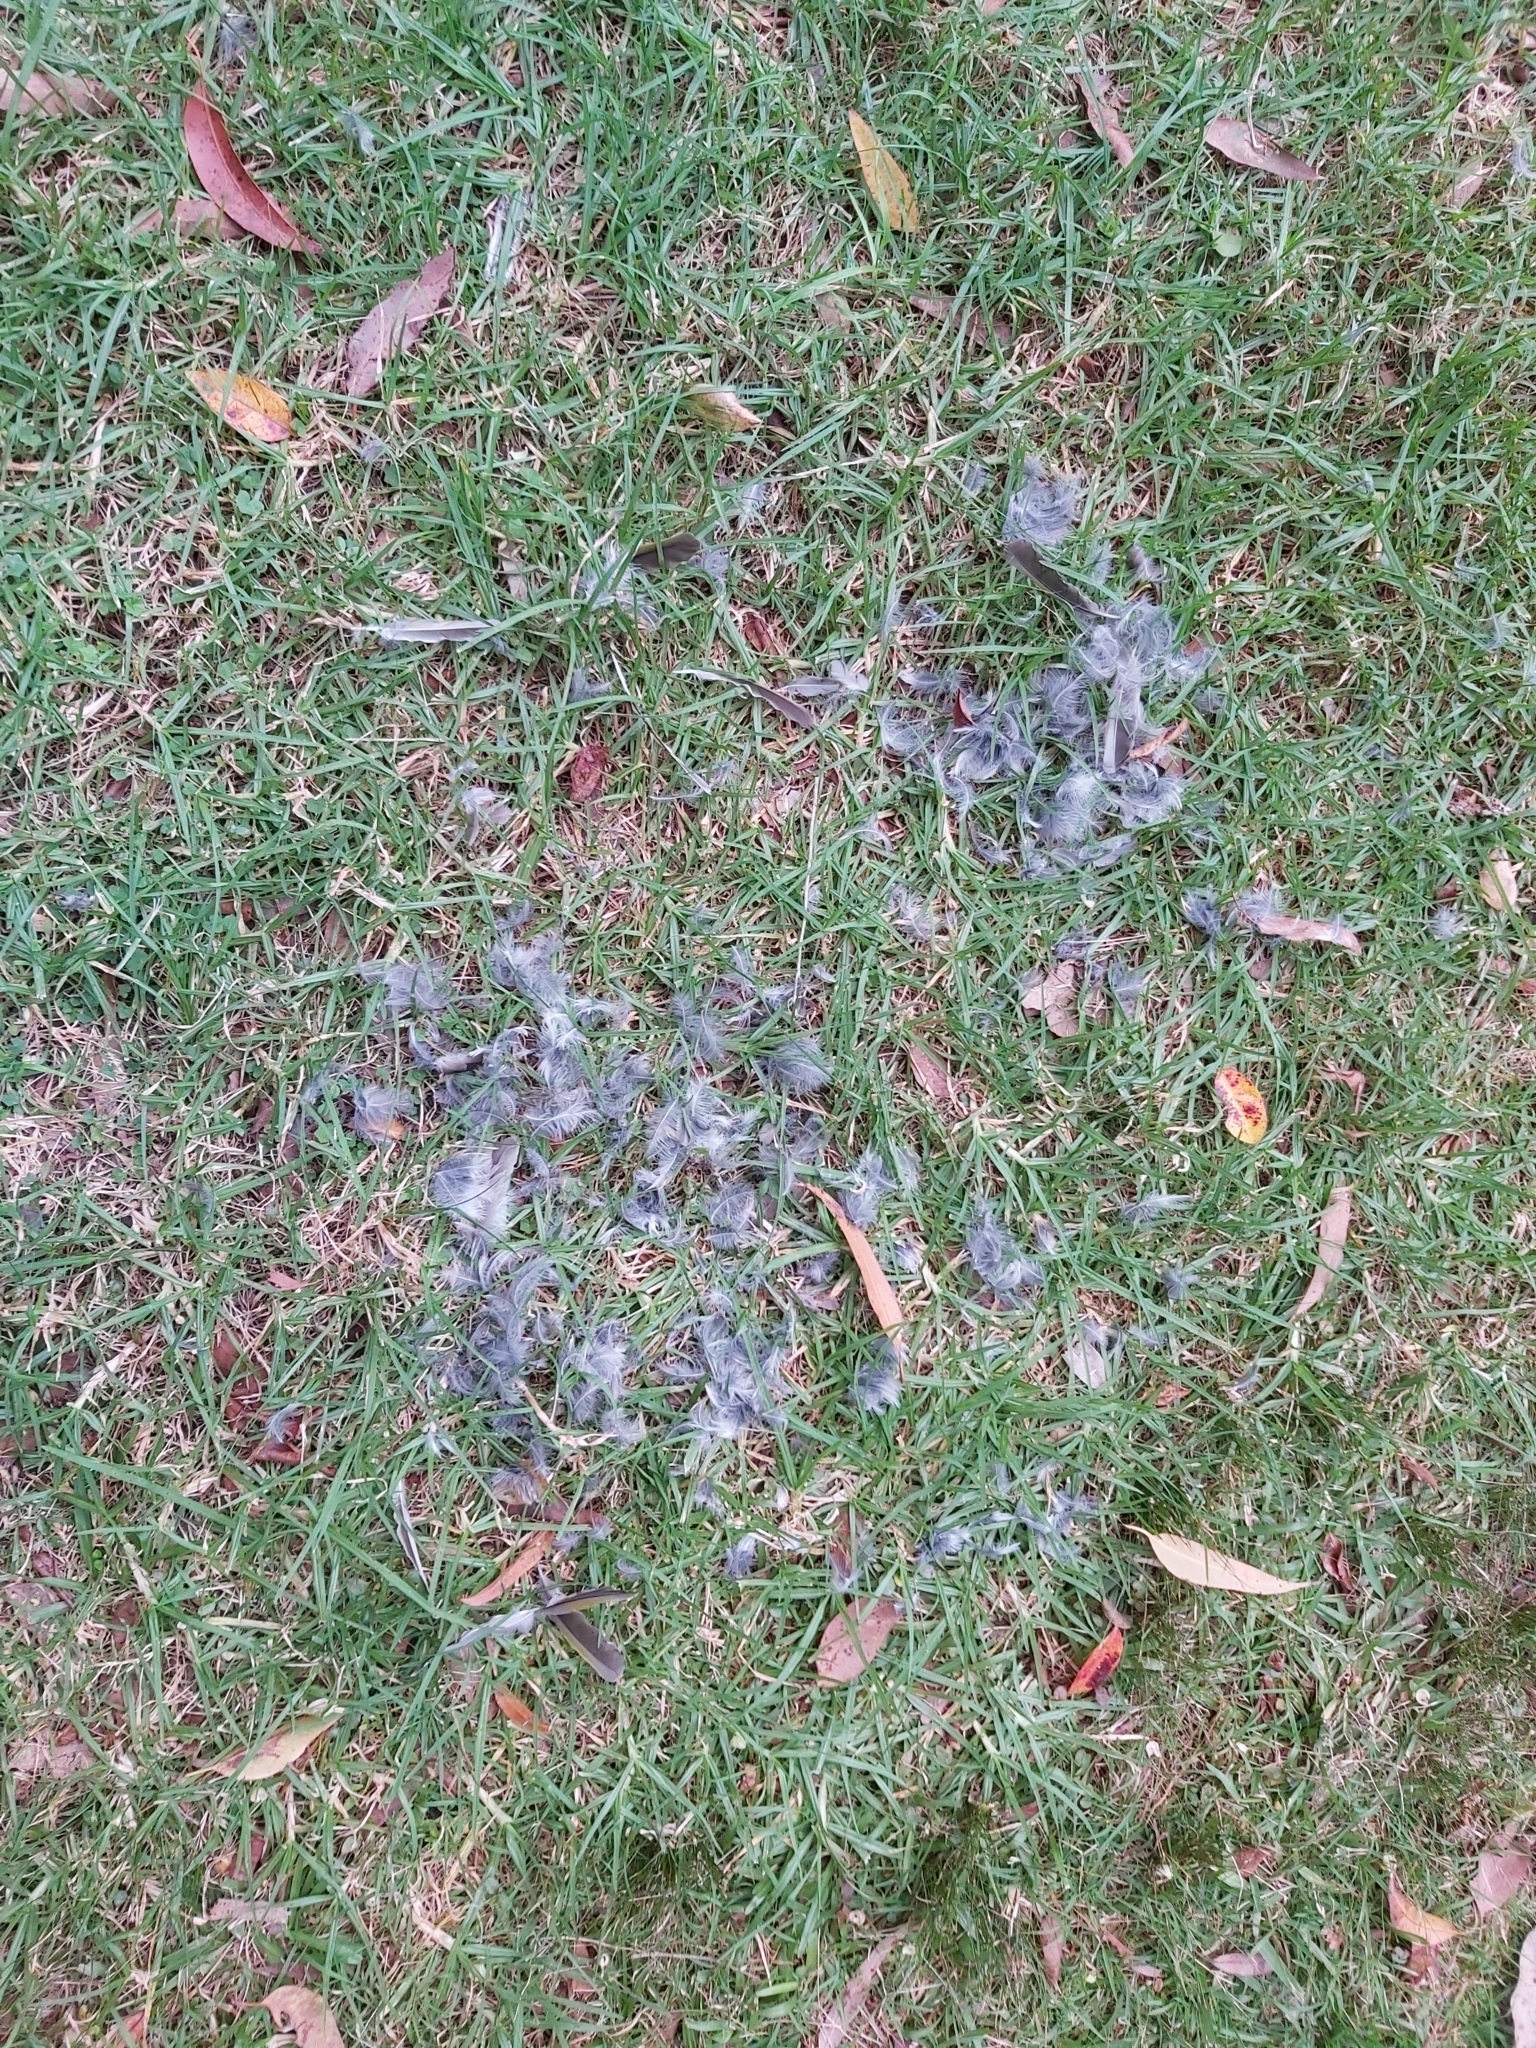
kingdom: Animalia
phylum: Chordata
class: Aves
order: Passeriformes
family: Meliphagidae
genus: Manorina
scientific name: Manorina melanocephala
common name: Noisy miner
